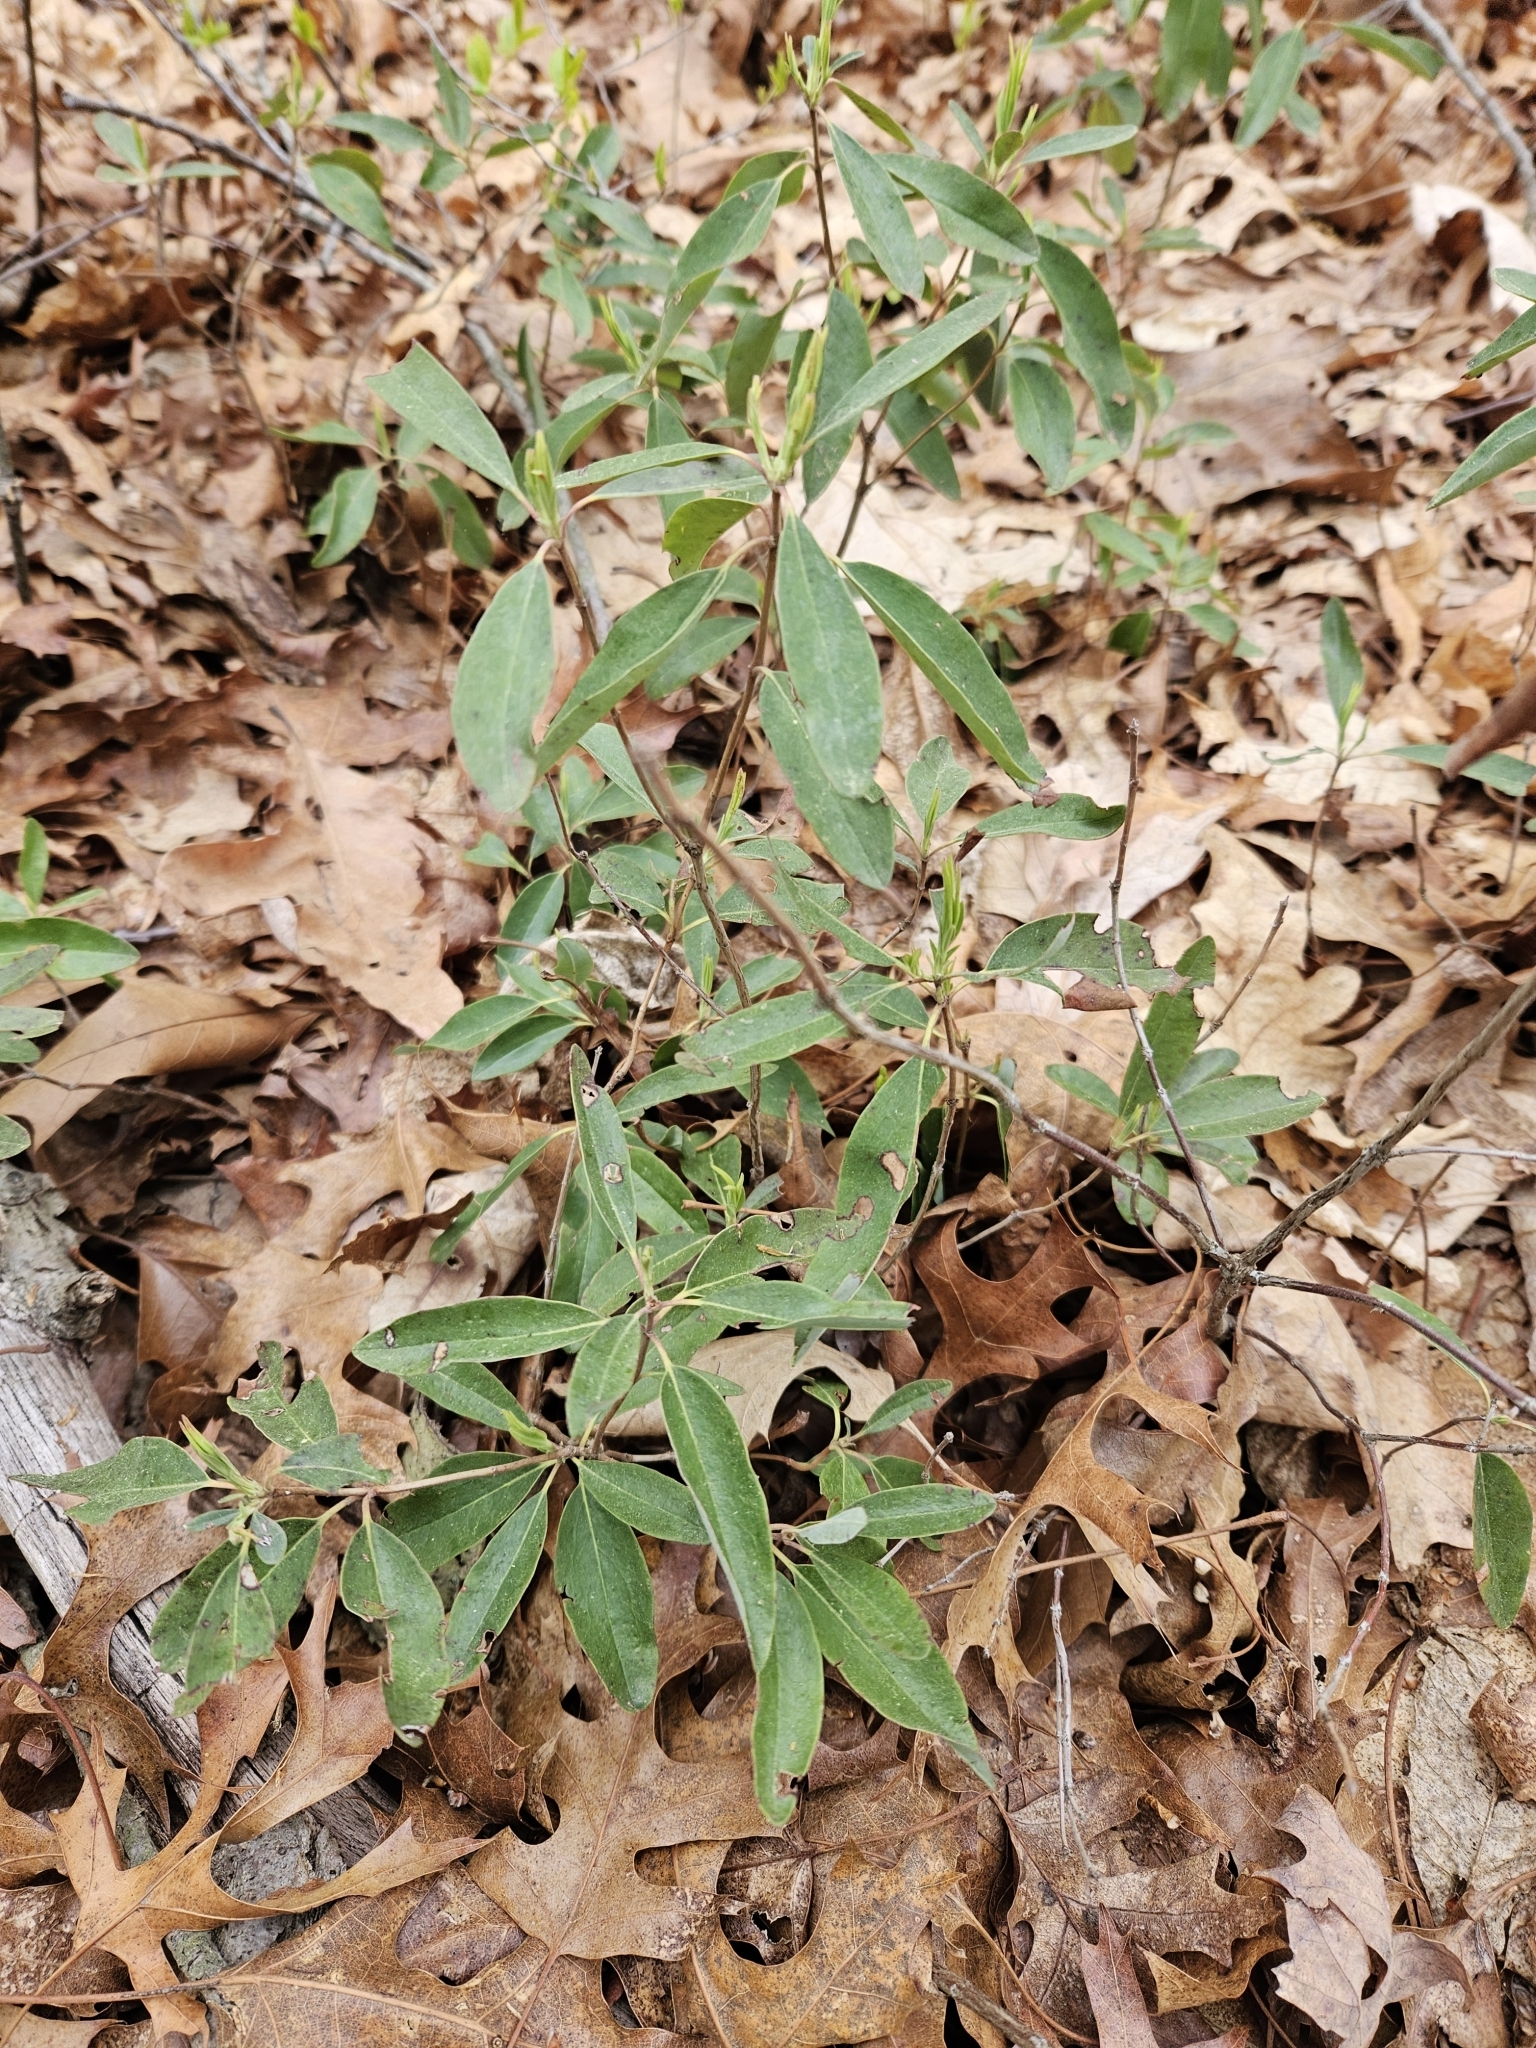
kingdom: Plantae
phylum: Tracheophyta
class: Magnoliopsida
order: Ericales
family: Ericaceae
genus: Kalmia
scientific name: Kalmia angustifolia
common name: Sheep-laurel
